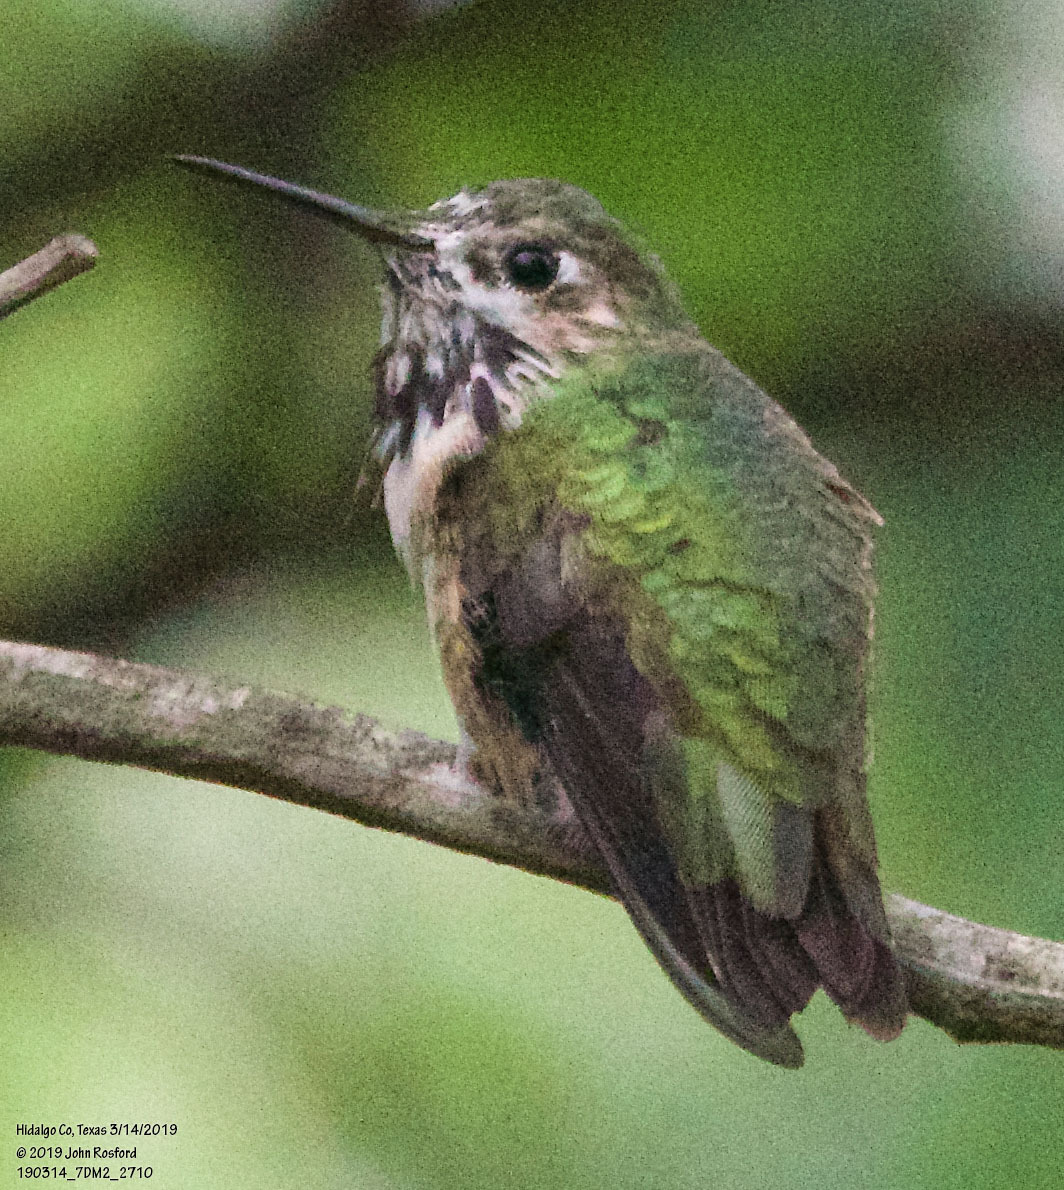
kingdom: Animalia
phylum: Chordata
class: Aves
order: Apodiformes
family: Trochilidae
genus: Selasphorus
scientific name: Selasphorus calliope
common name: Calliope hummingbird
